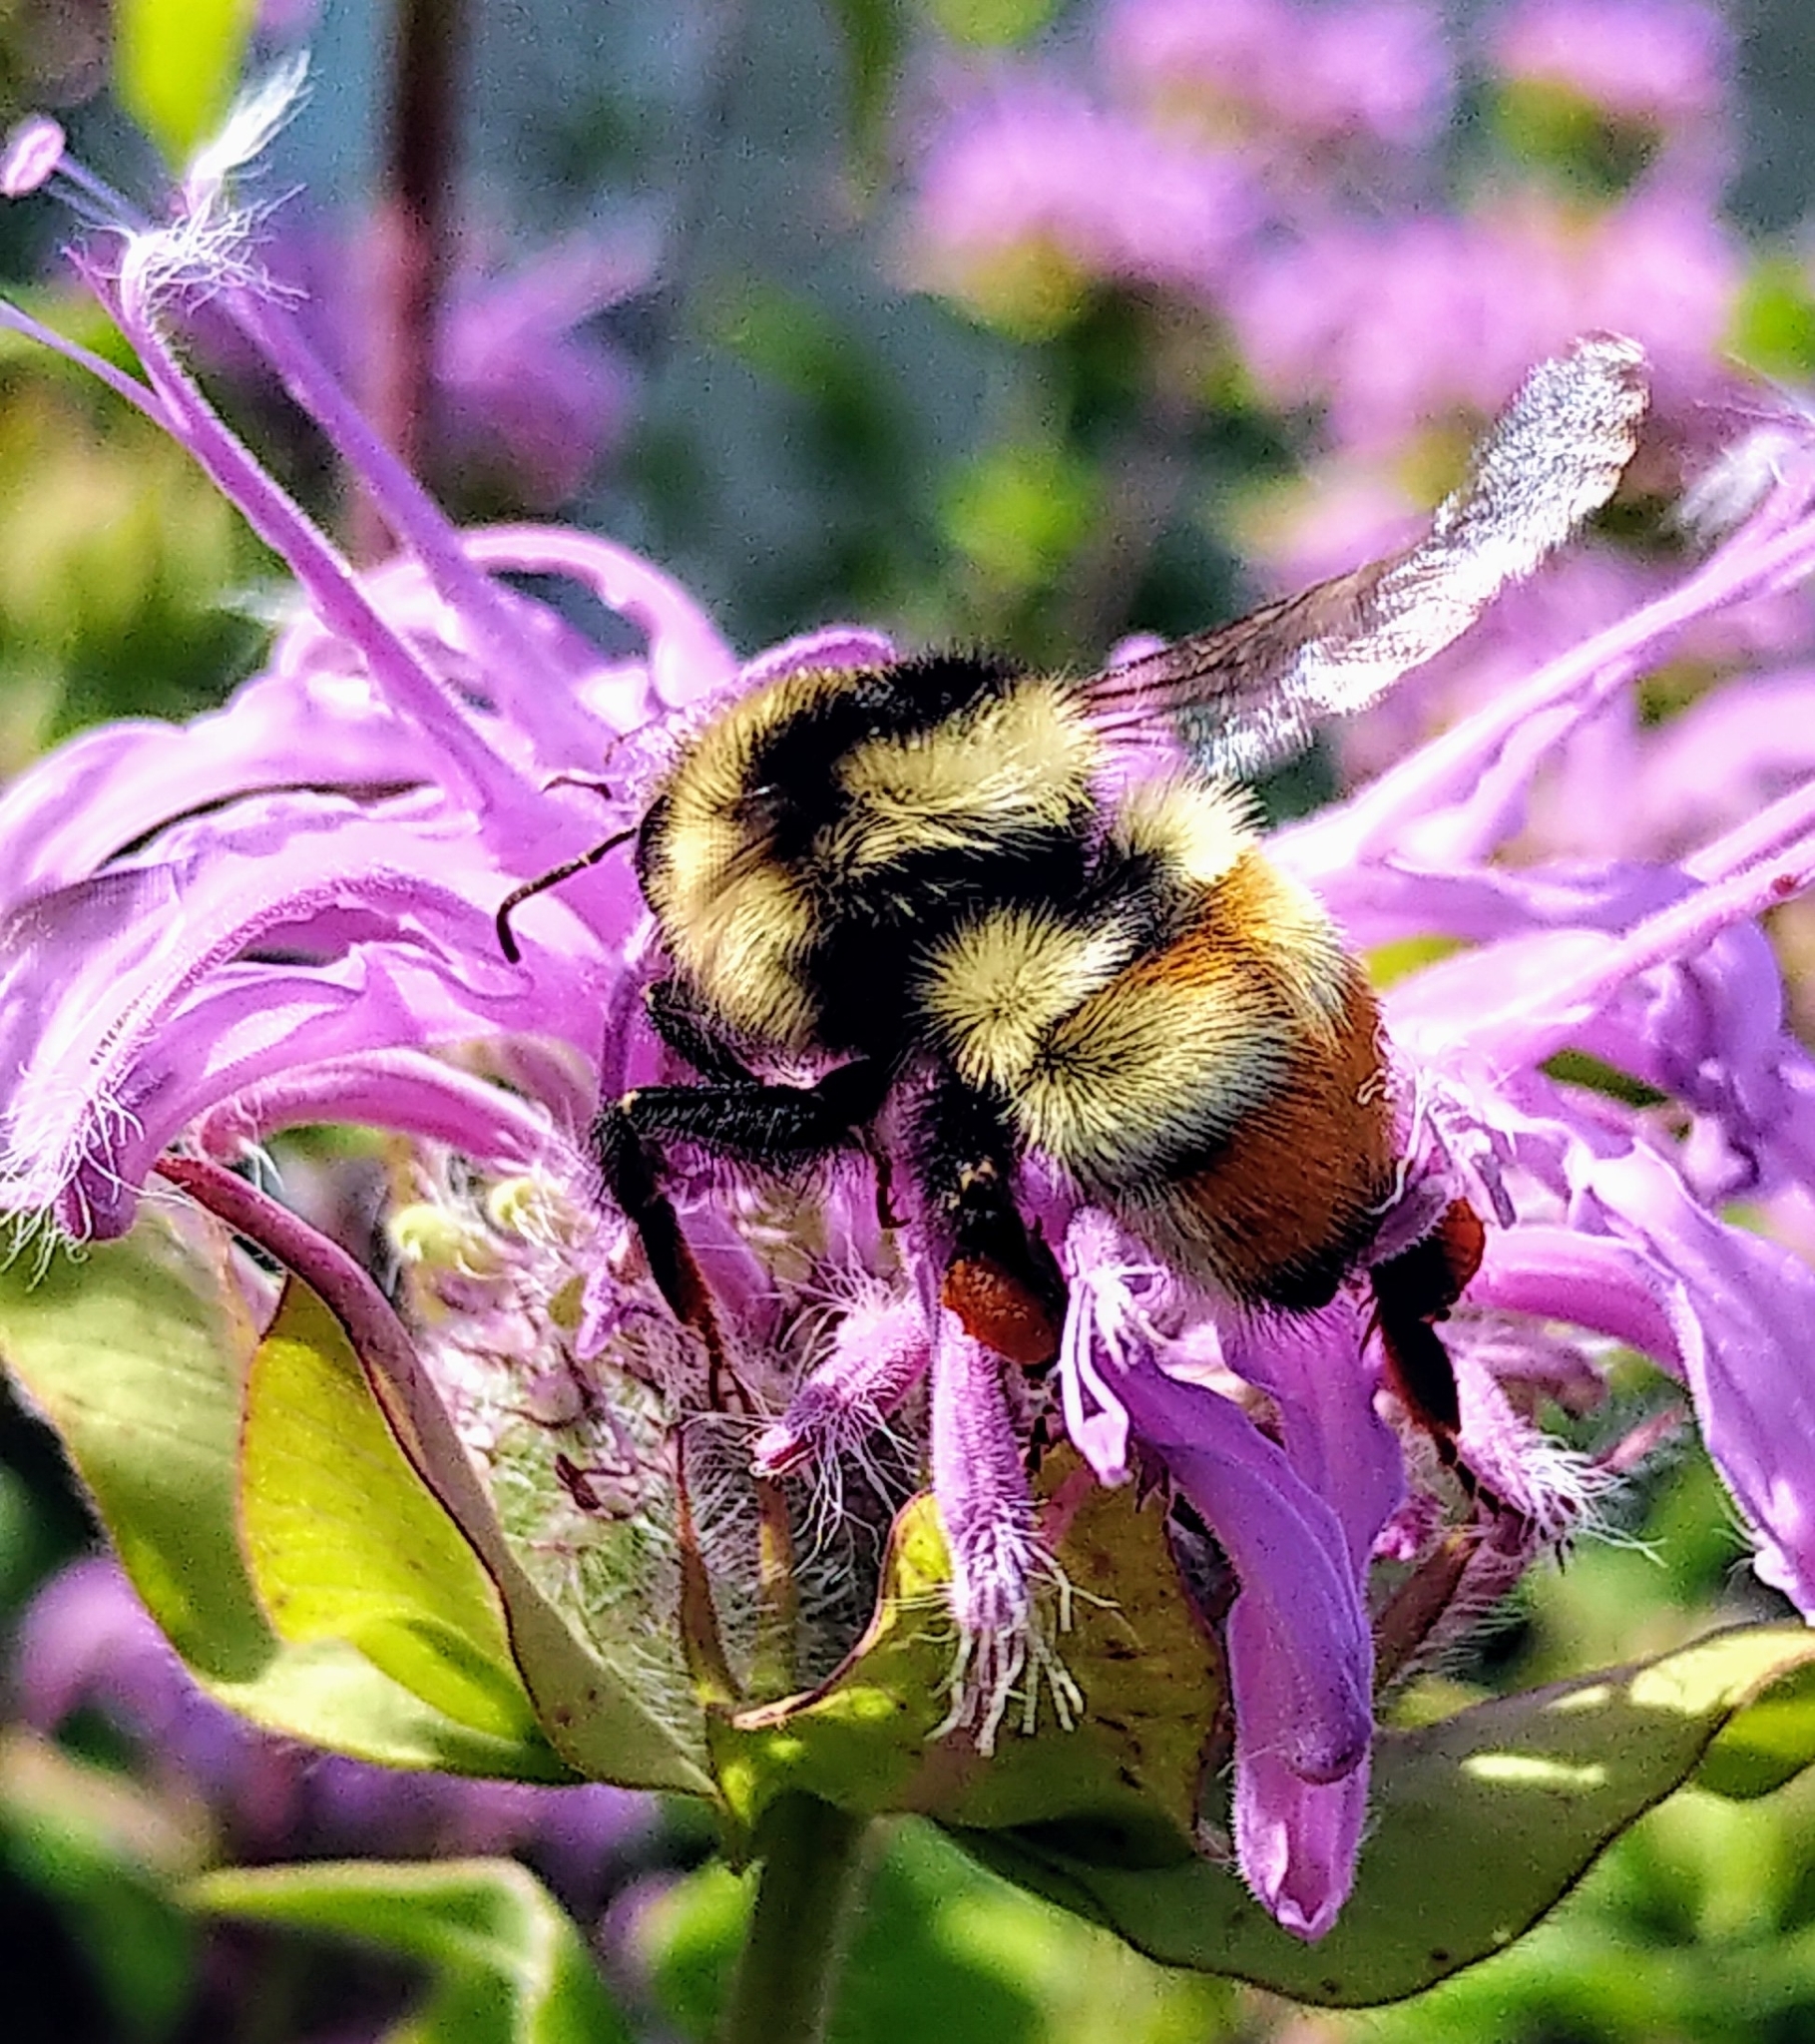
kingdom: Animalia
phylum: Arthropoda
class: Insecta
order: Hymenoptera
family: Apidae
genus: Bombus
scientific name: Bombus centralis
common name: Central bumble bee
